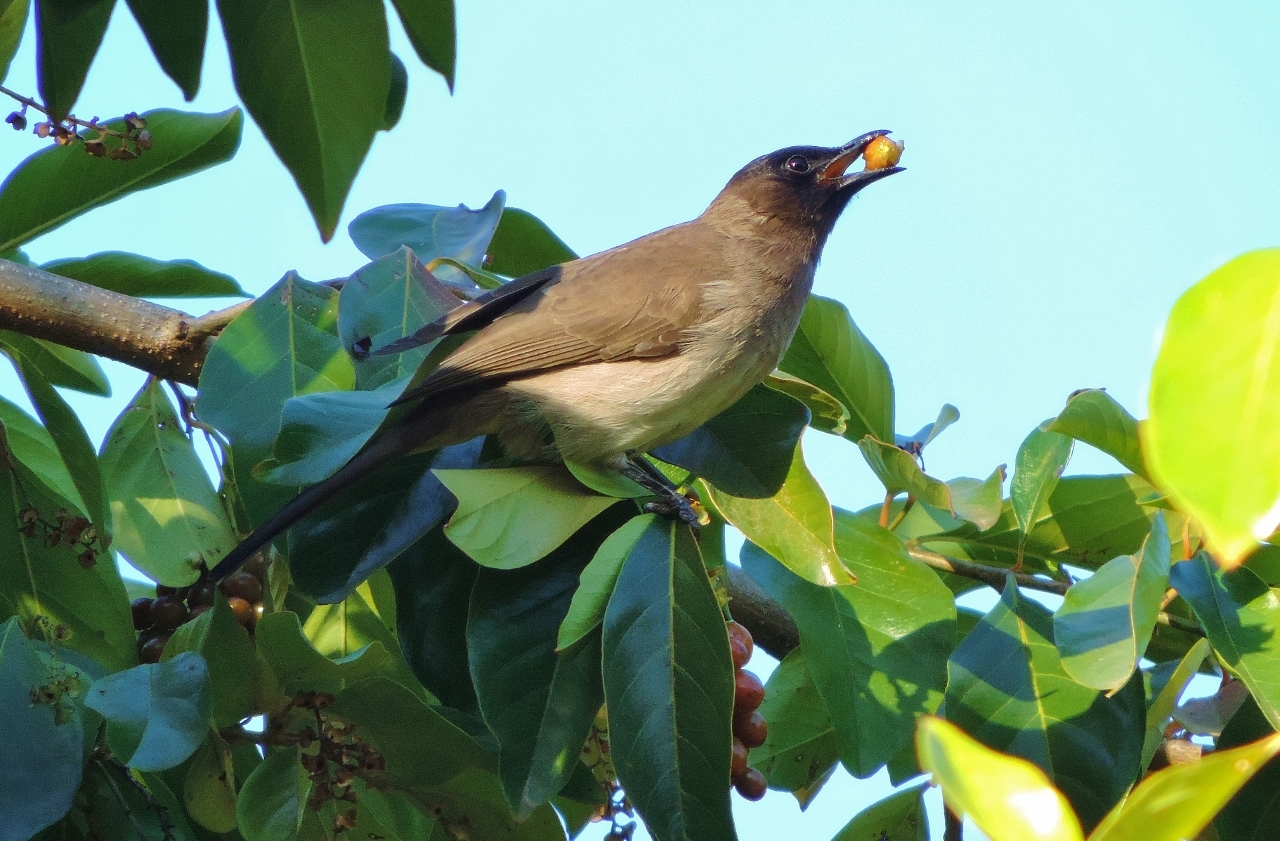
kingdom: Animalia
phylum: Chordata
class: Aves
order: Passeriformes
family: Pycnonotidae
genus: Pycnonotus
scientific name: Pycnonotus barbatus
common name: Common bulbul
